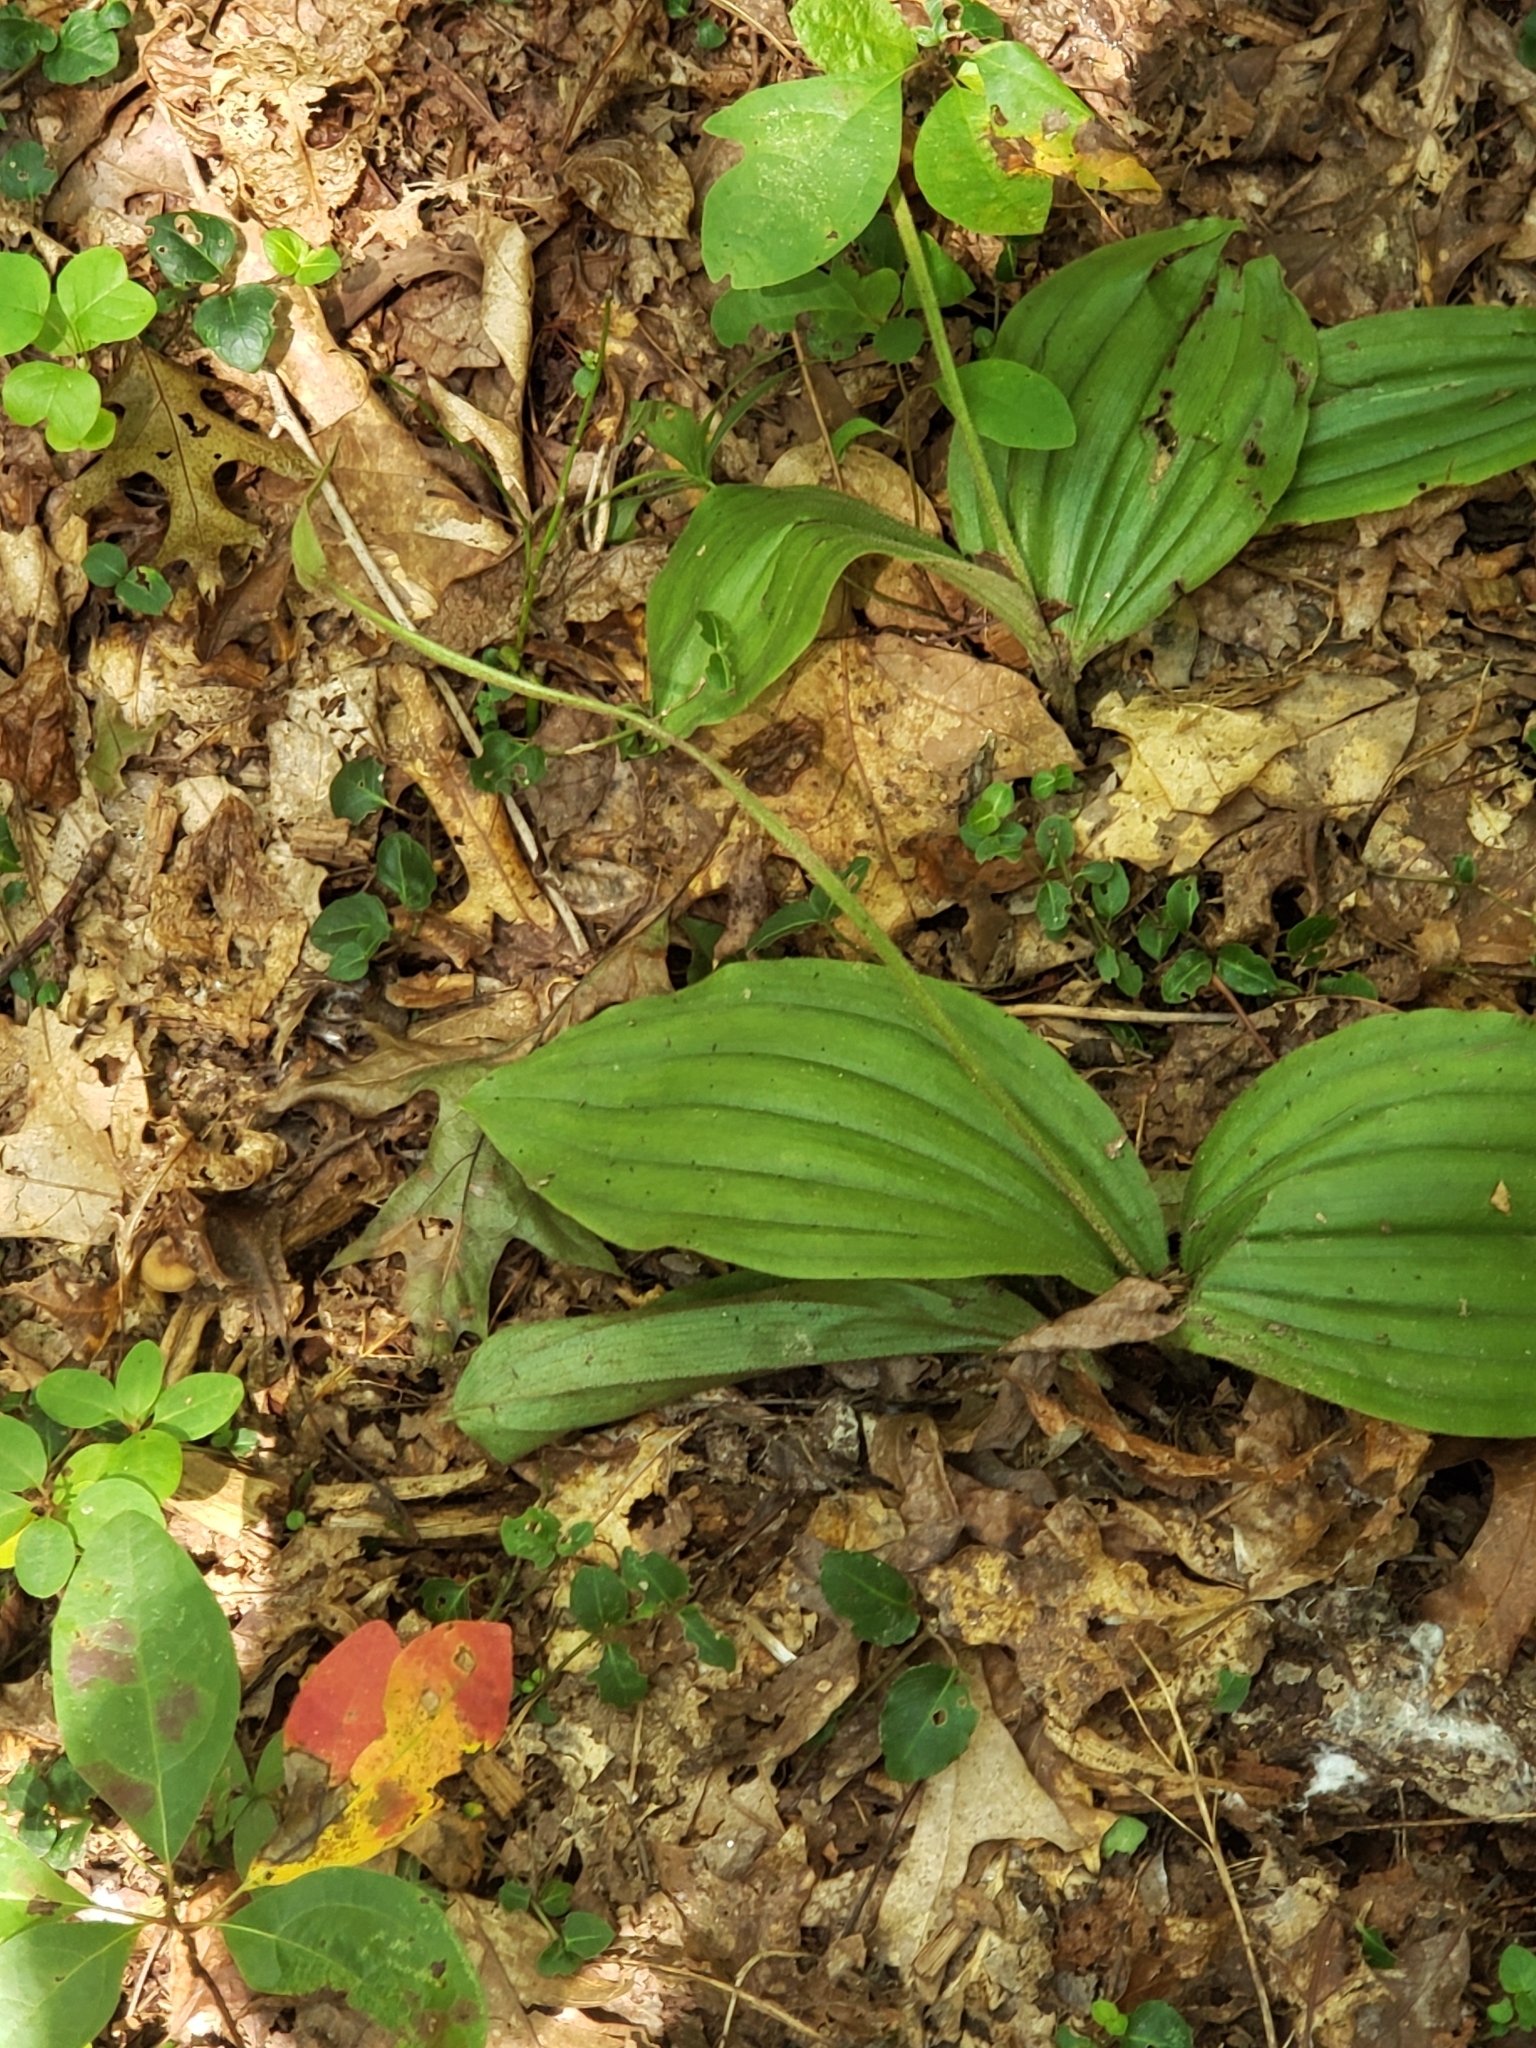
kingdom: Plantae
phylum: Tracheophyta
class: Liliopsida
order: Asparagales
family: Orchidaceae
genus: Cypripedium
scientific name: Cypripedium acaule
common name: Pink lady's-slipper
